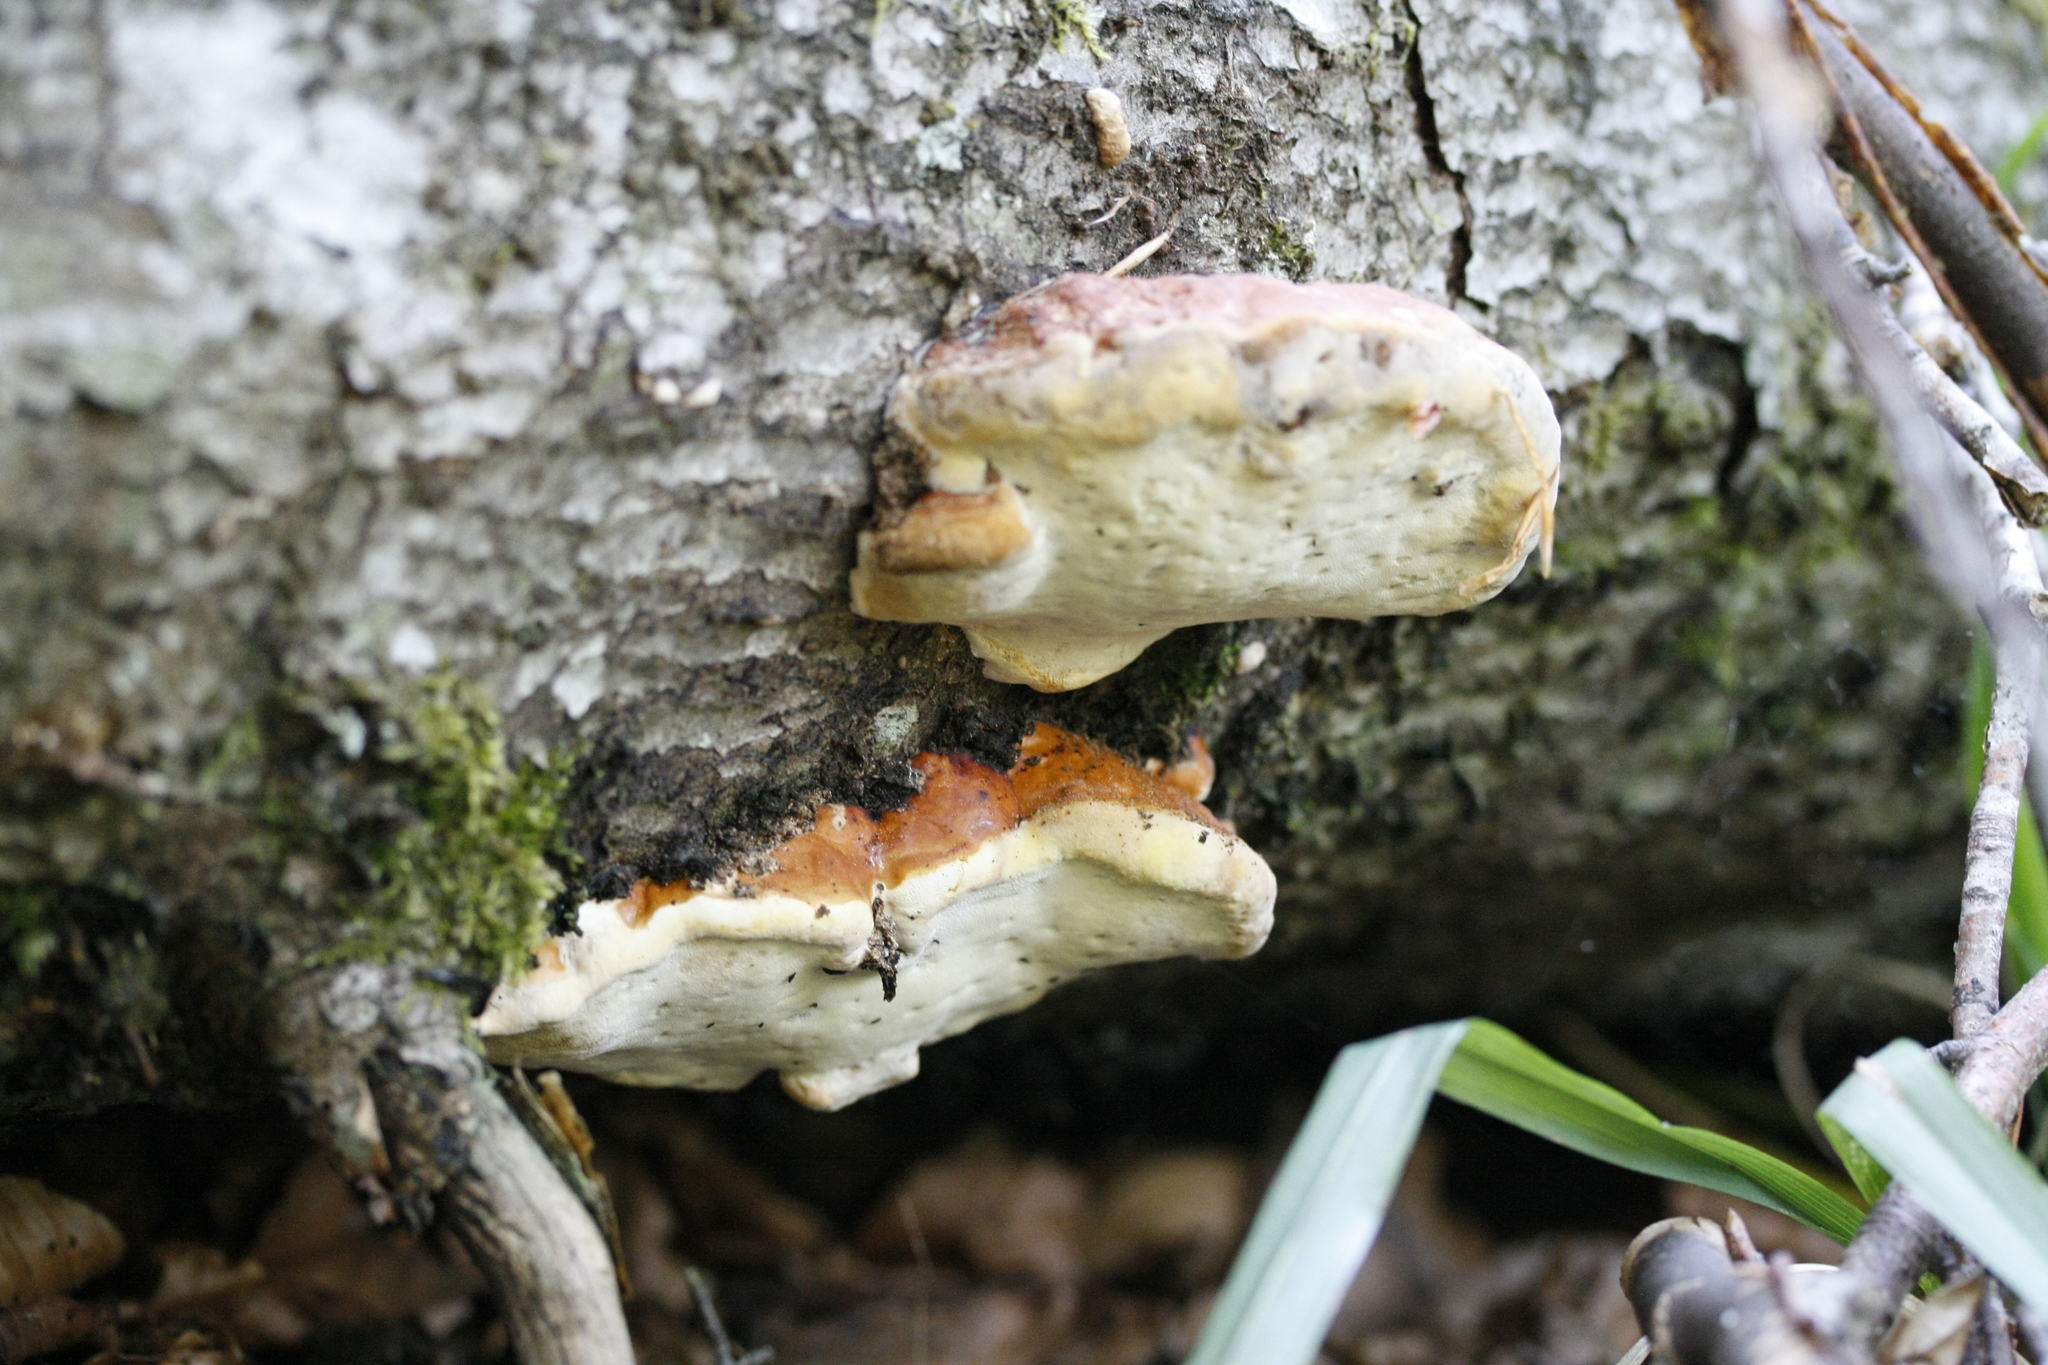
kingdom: Fungi
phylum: Basidiomycota
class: Agaricomycetes
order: Polyporales
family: Fomitopsidaceae
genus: Fomitopsis
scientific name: Fomitopsis pinicola
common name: Red-belted bracket
